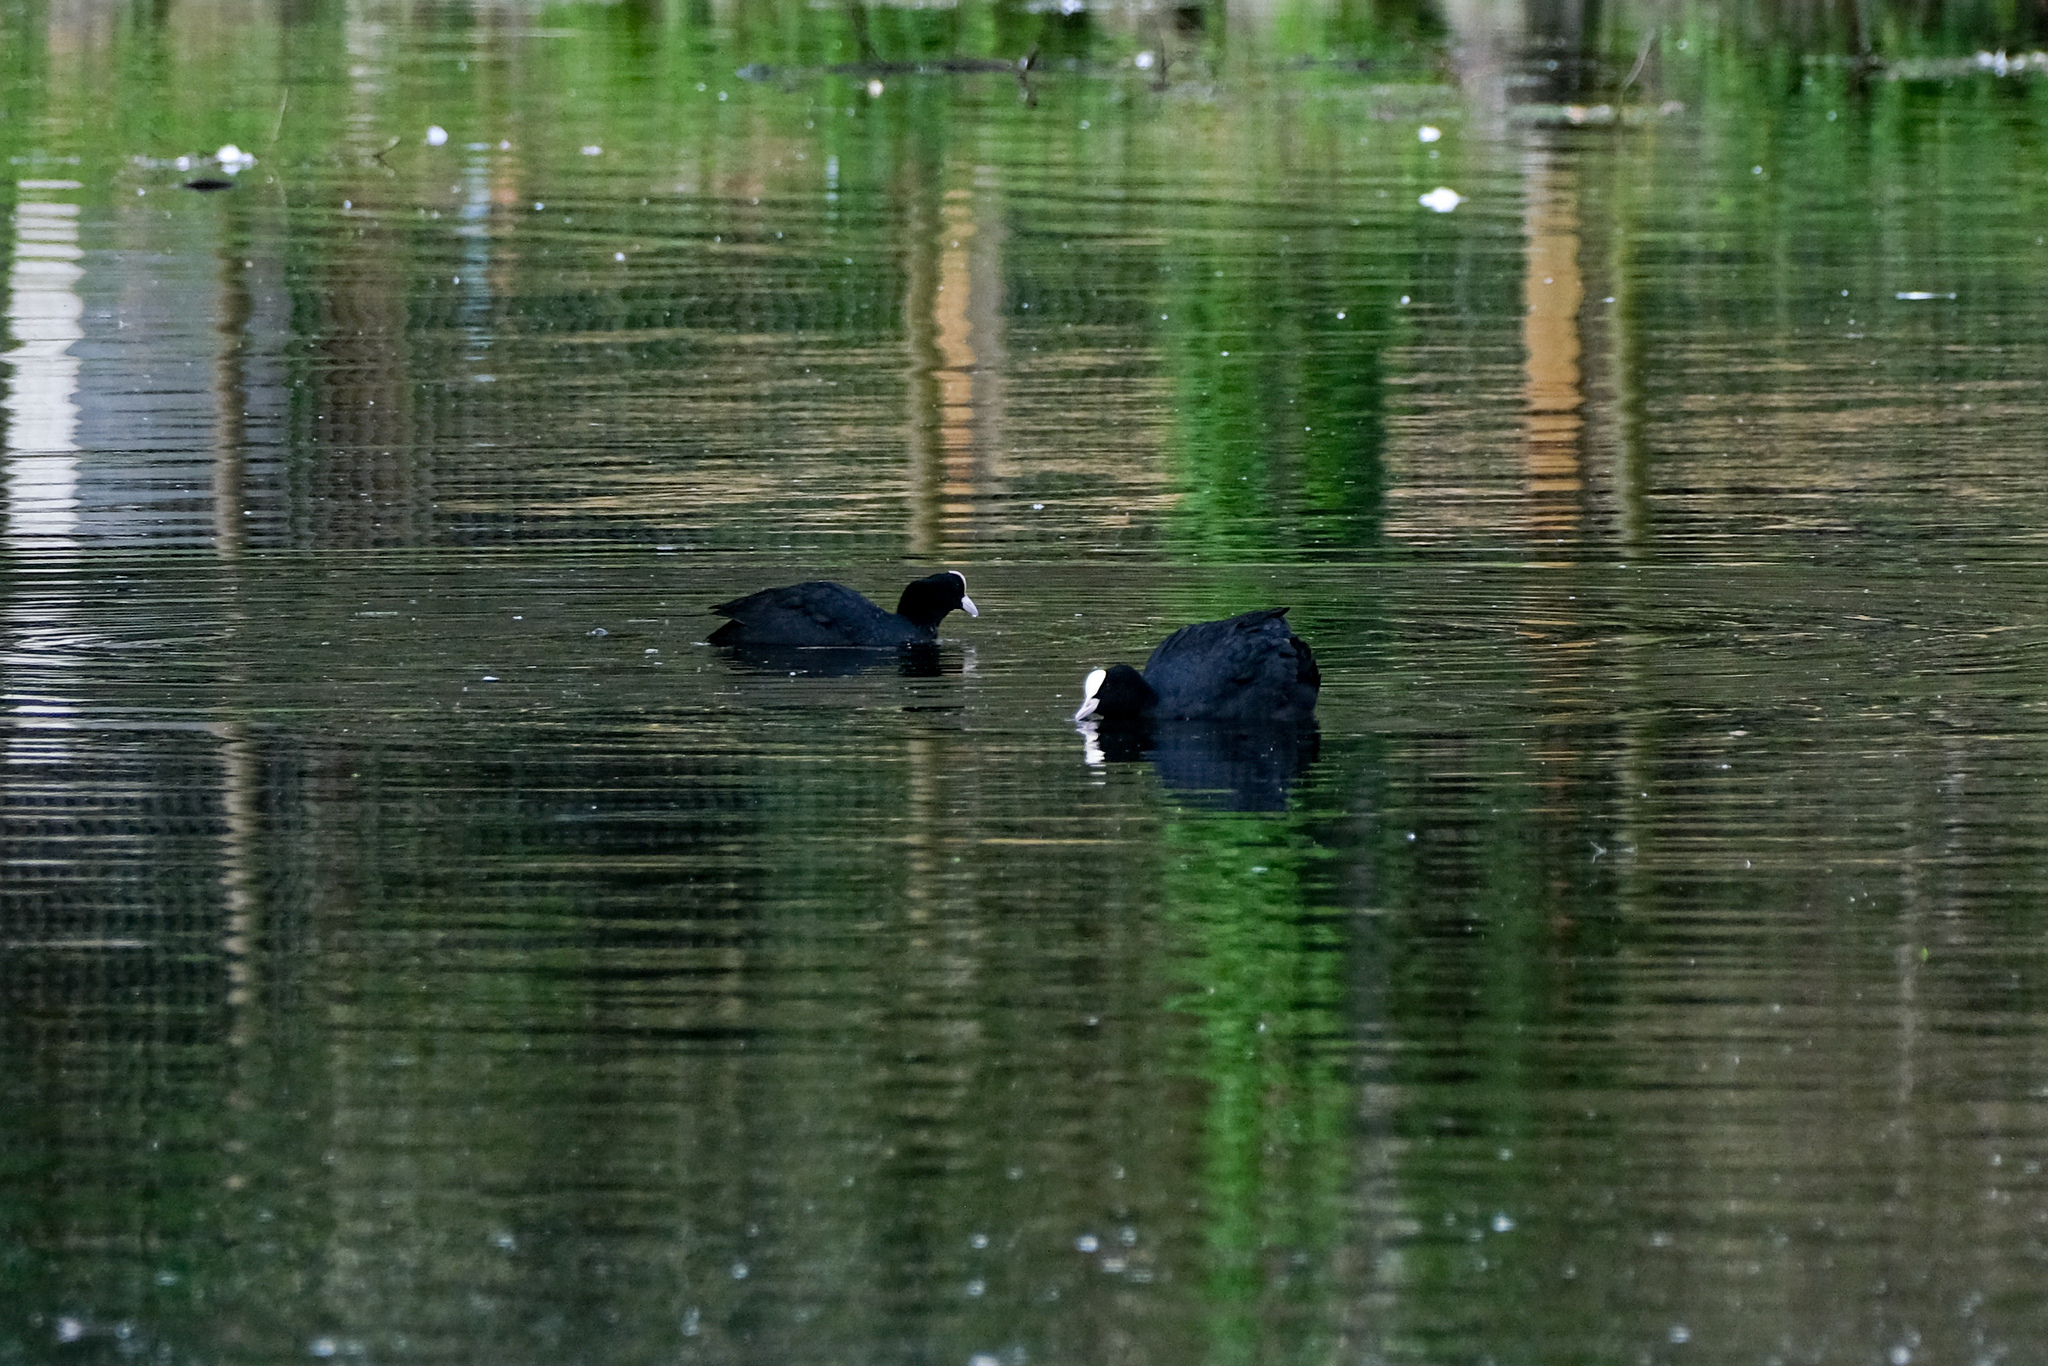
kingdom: Animalia
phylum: Chordata
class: Aves
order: Gruiformes
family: Rallidae
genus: Fulica
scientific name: Fulica atra
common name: Eurasian coot
